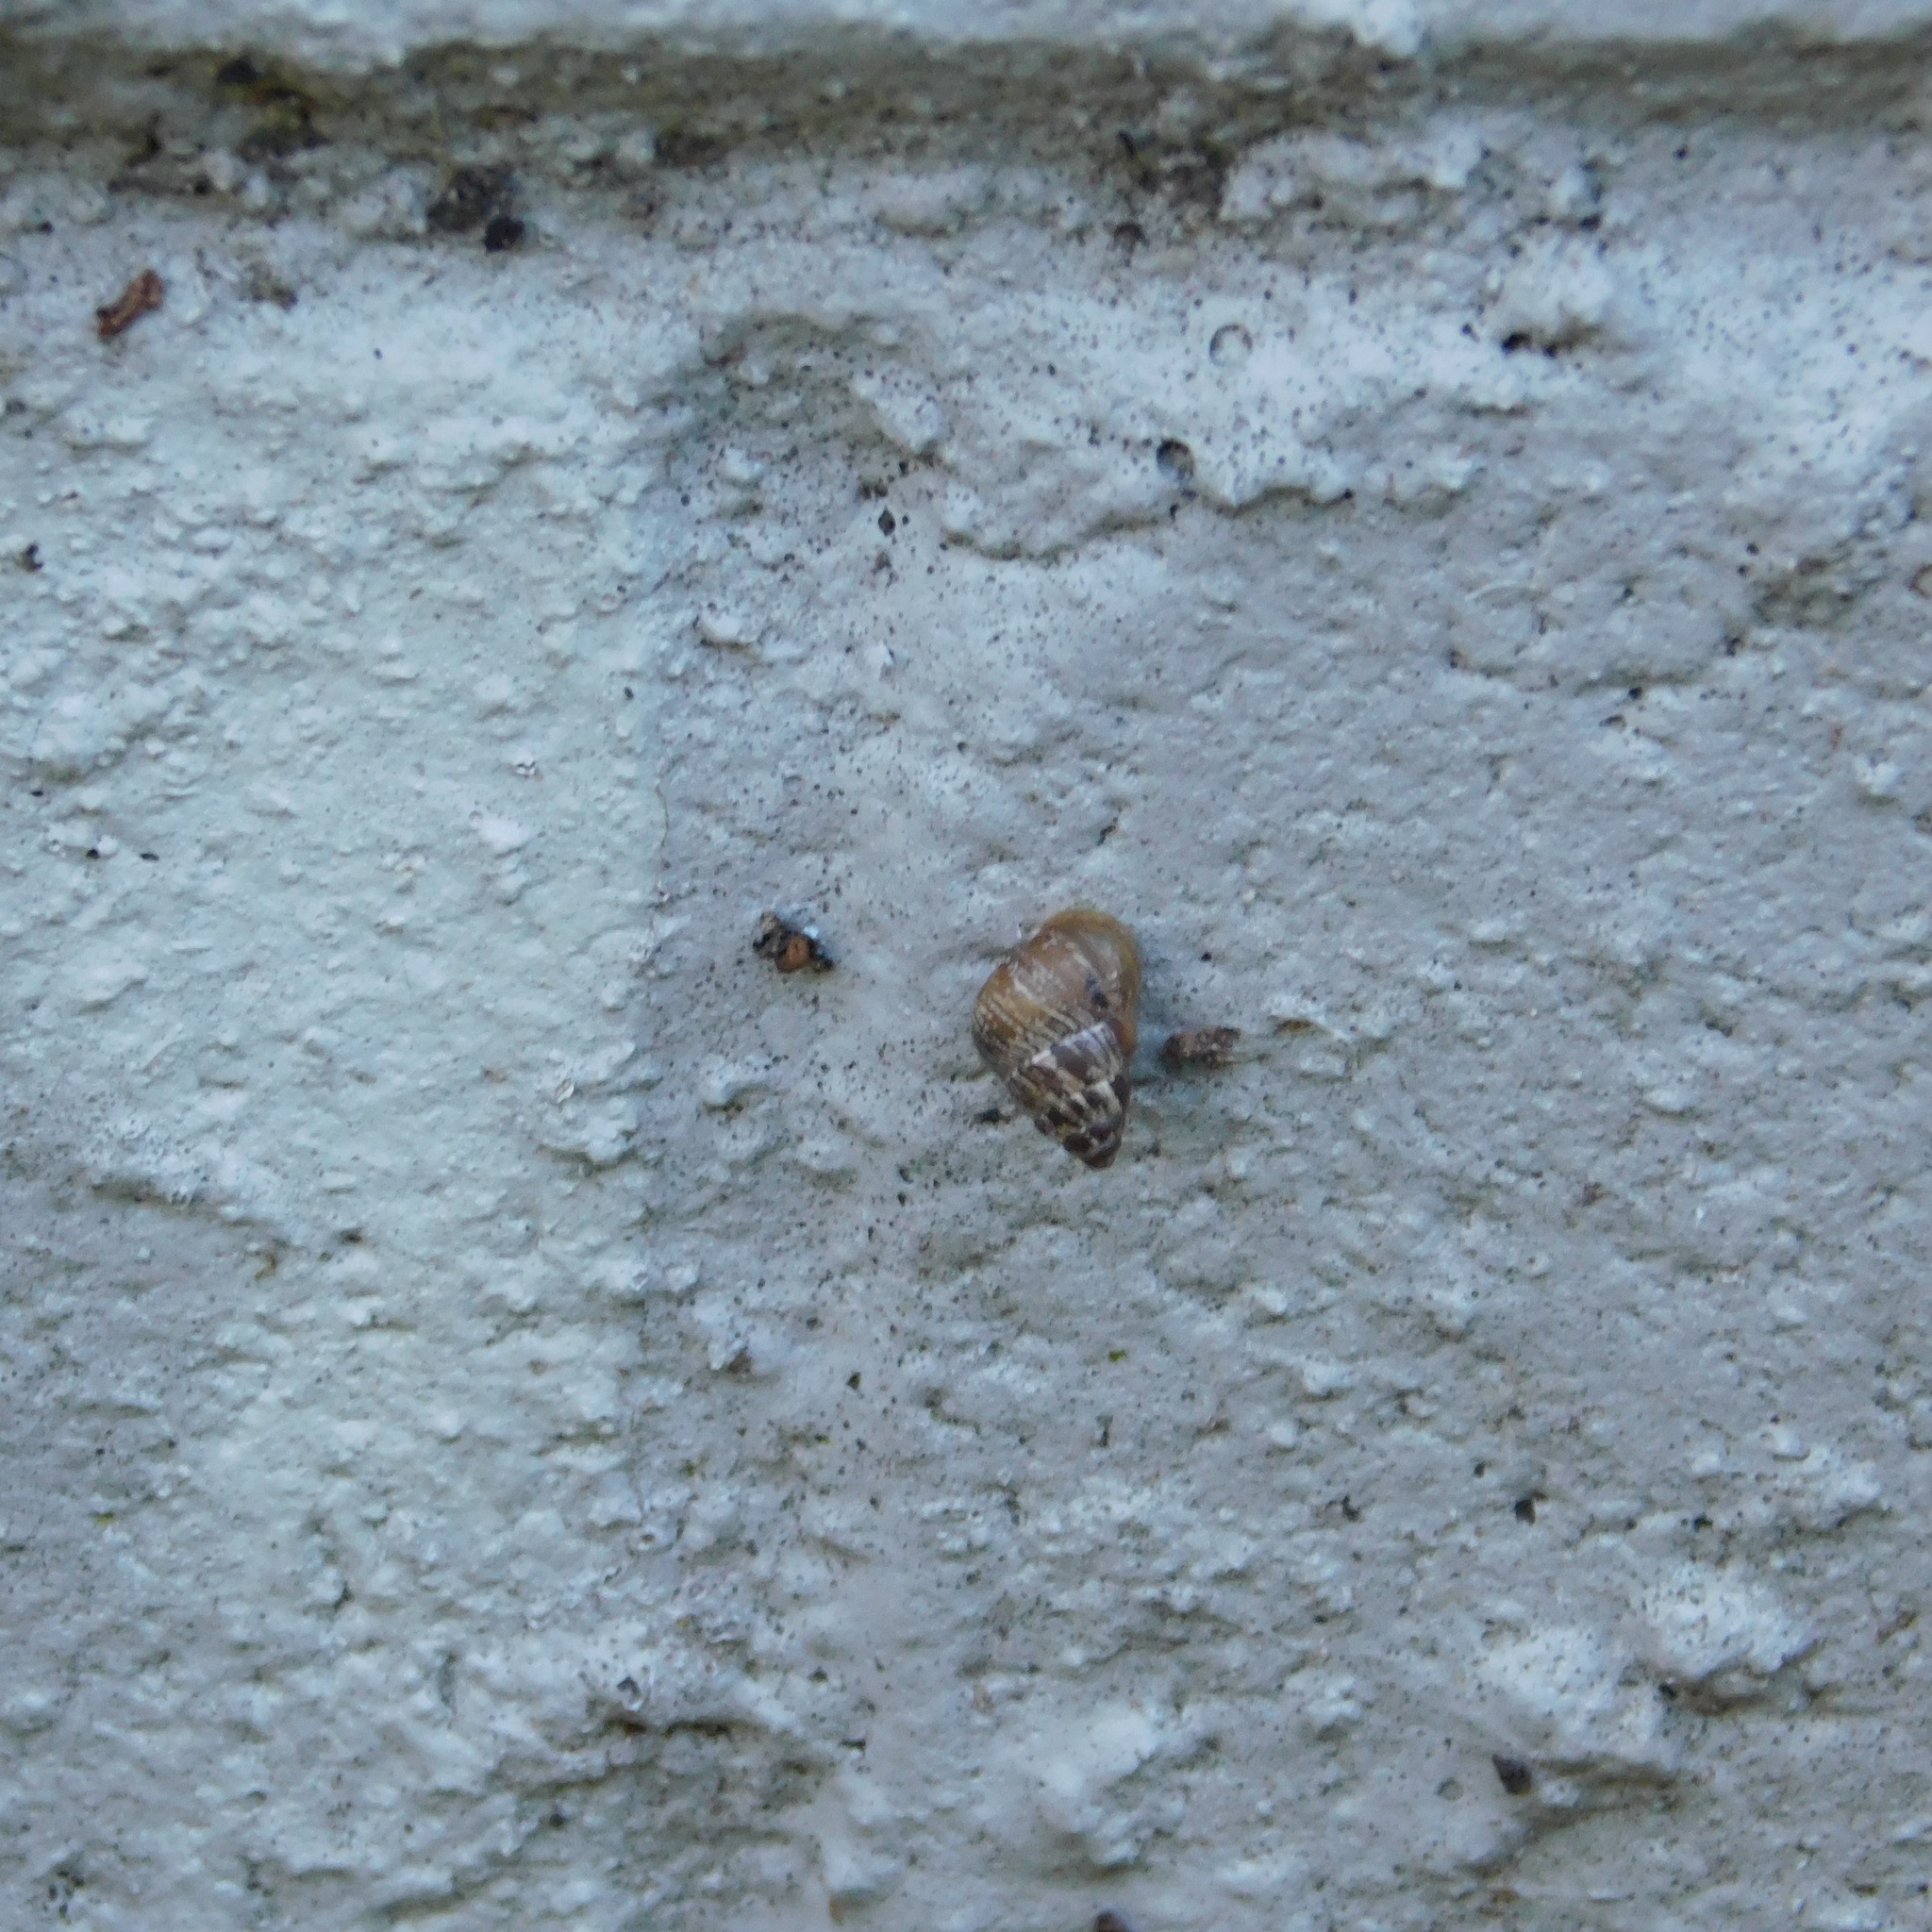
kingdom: Animalia
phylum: Mollusca
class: Gastropoda
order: Stylommatophora
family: Geomitridae
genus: Cochlicella
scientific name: Cochlicella barbara
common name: Potbellied helicellid
